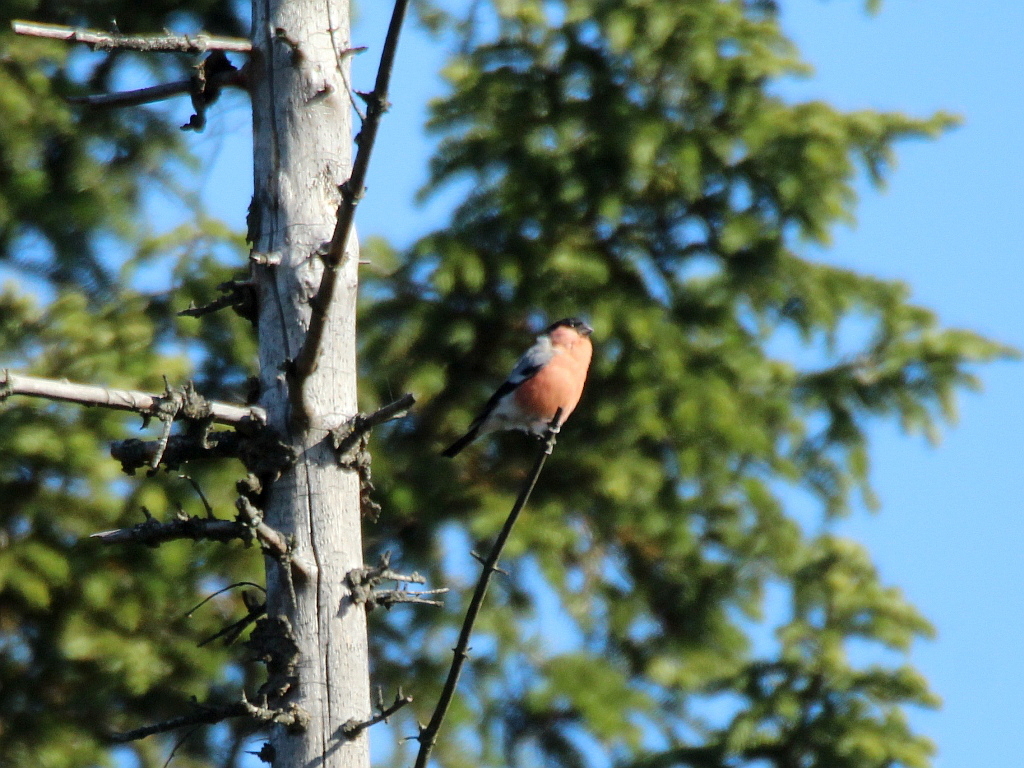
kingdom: Animalia
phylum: Chordata
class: Aves
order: Passeriformes
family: Fringillidae
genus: Pyrrhula
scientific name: Pyrrhula pyrrhula
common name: Eurasian bullfinch
